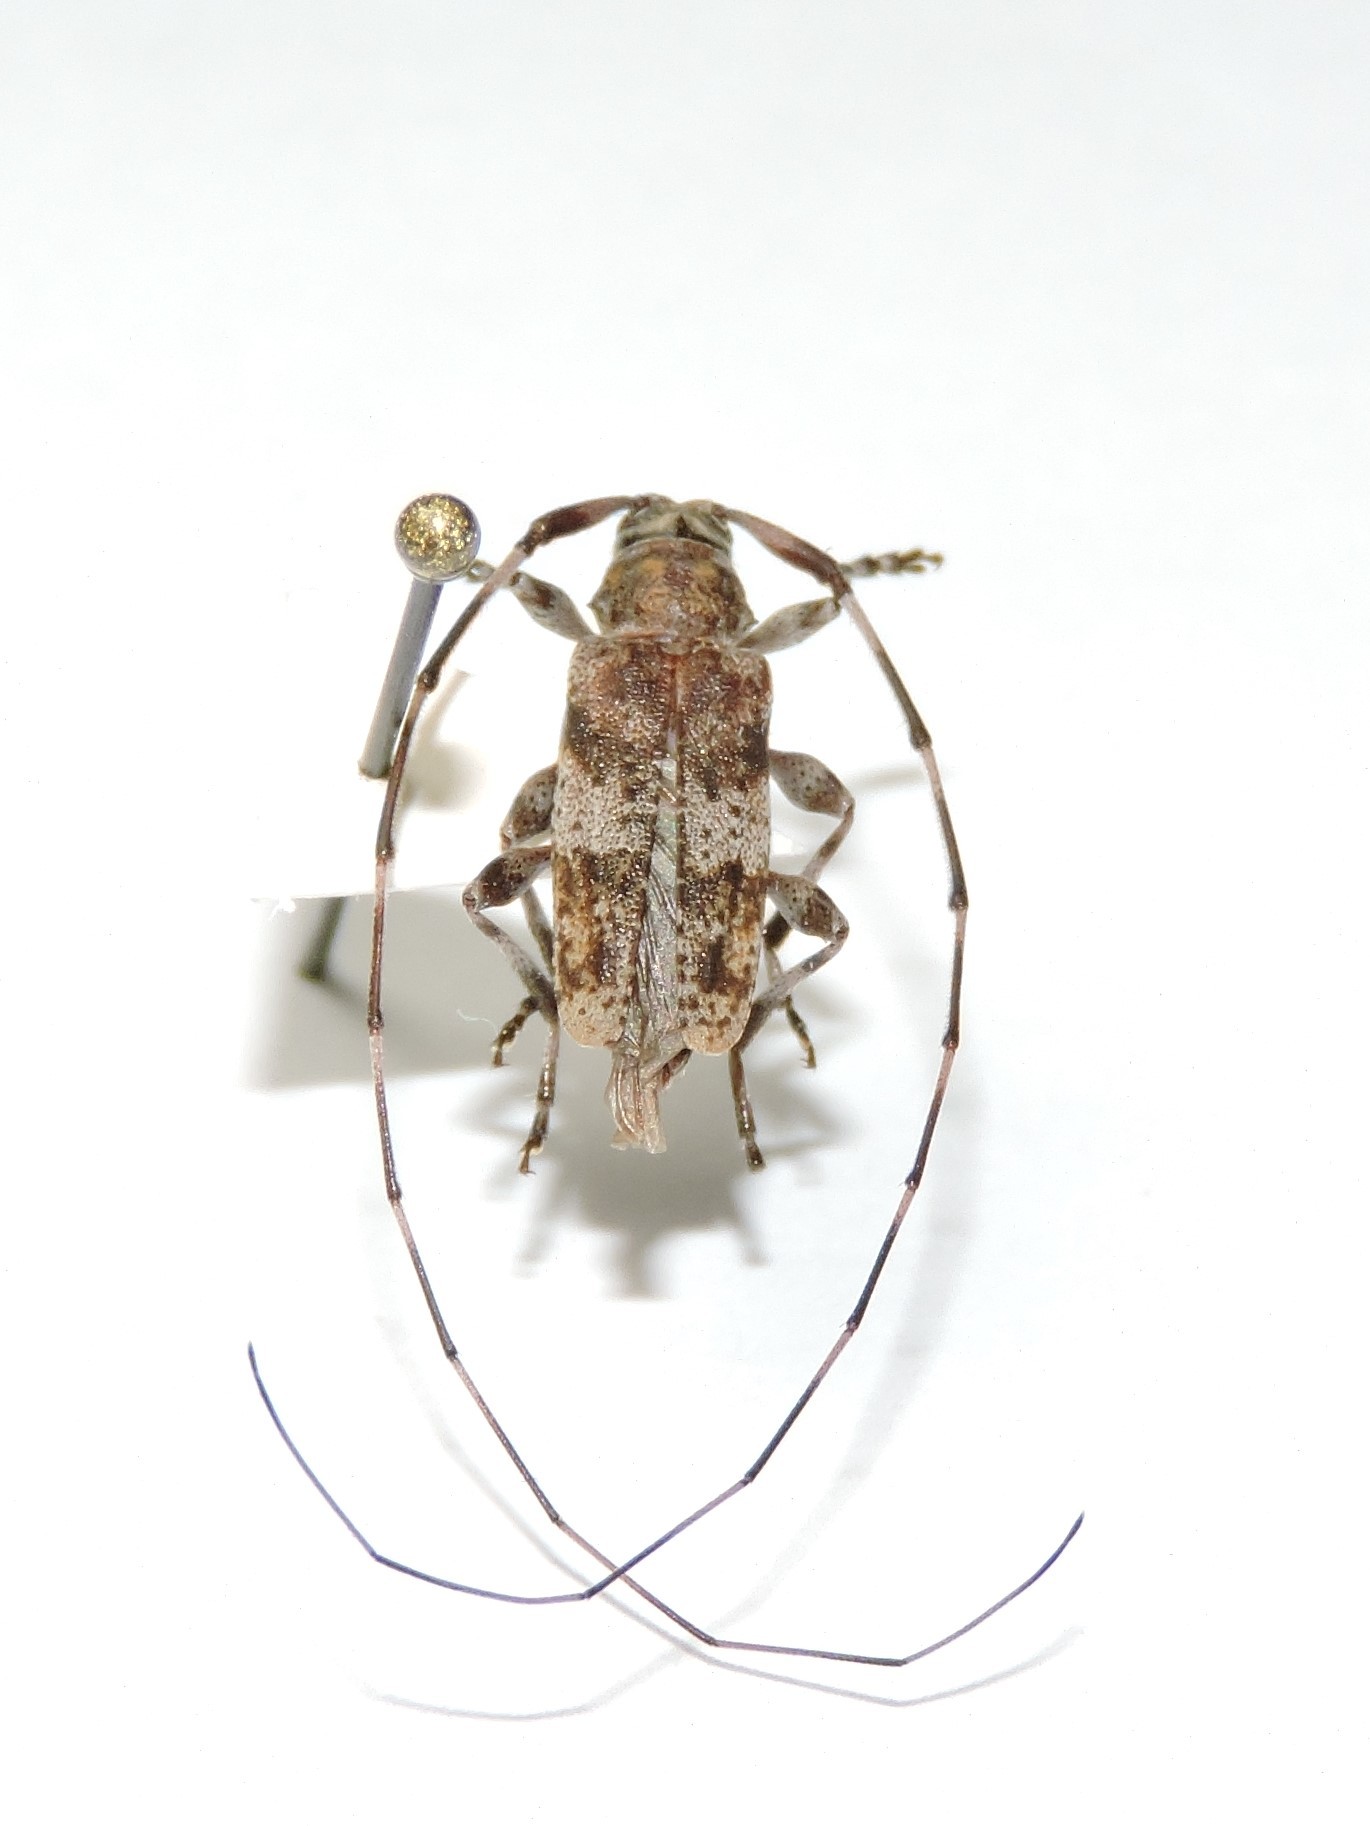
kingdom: Animalia
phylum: Arthropoda
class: Insecta
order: Coleoptera
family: Cerambycidae
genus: Acanthocinus
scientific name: Acanthocinus griseus
